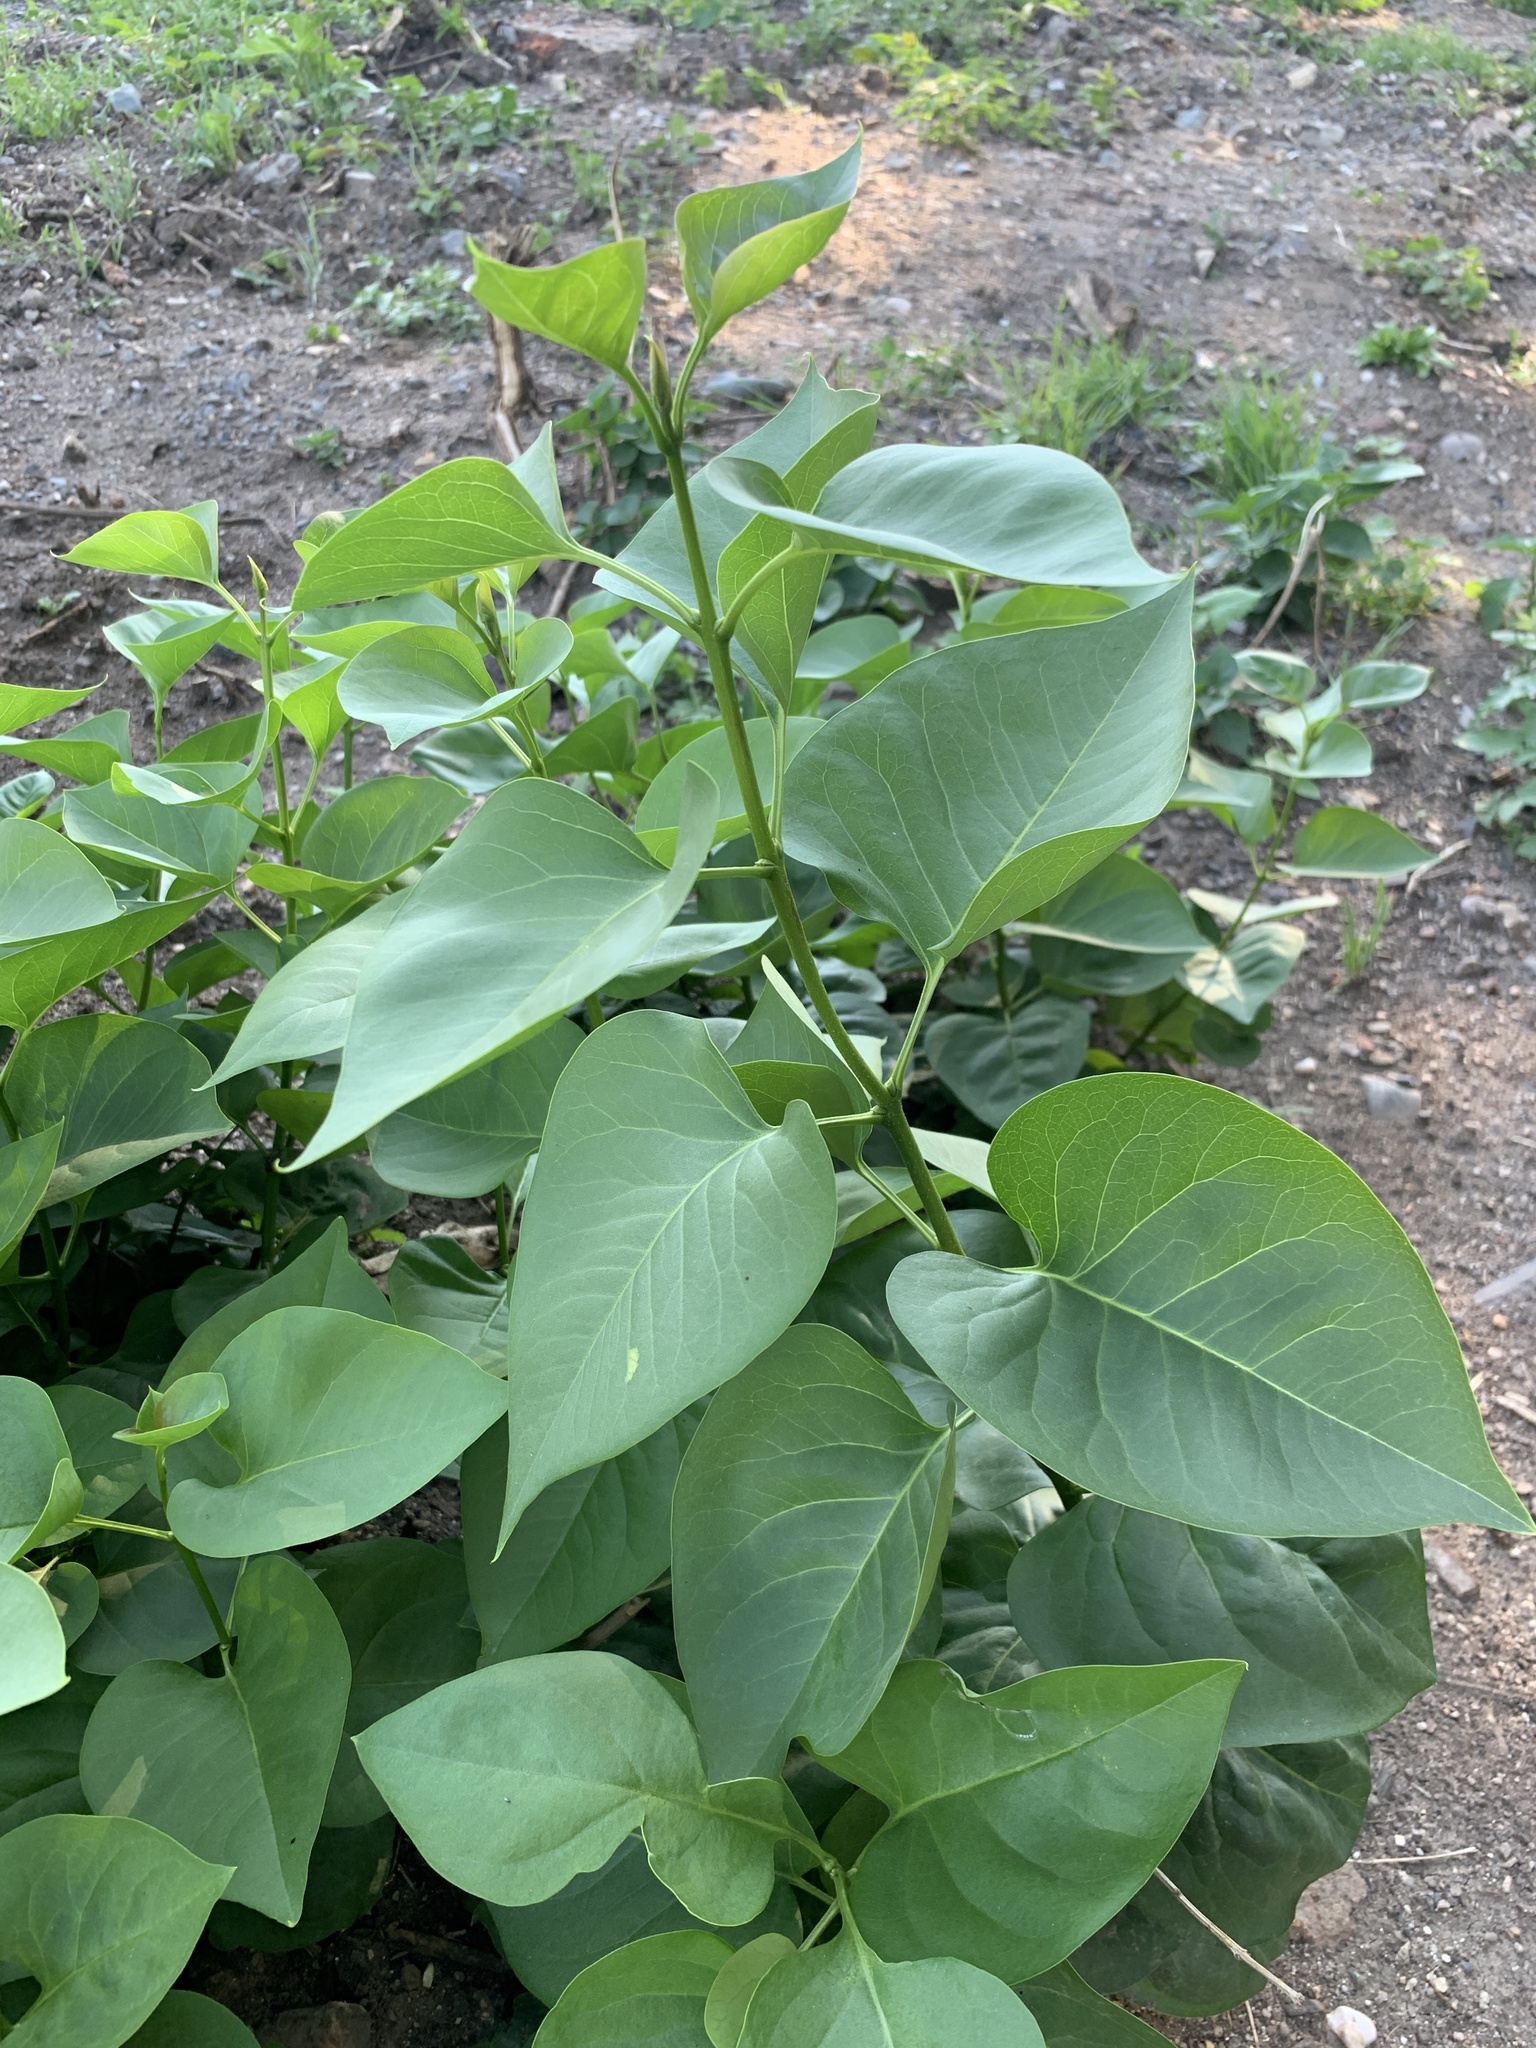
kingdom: Plantae
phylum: Tracheophyta
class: Magnoliopsida
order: Lamiales
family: Oleaceae
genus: Syringa
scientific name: Syringa vulgaris
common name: Common lilac
